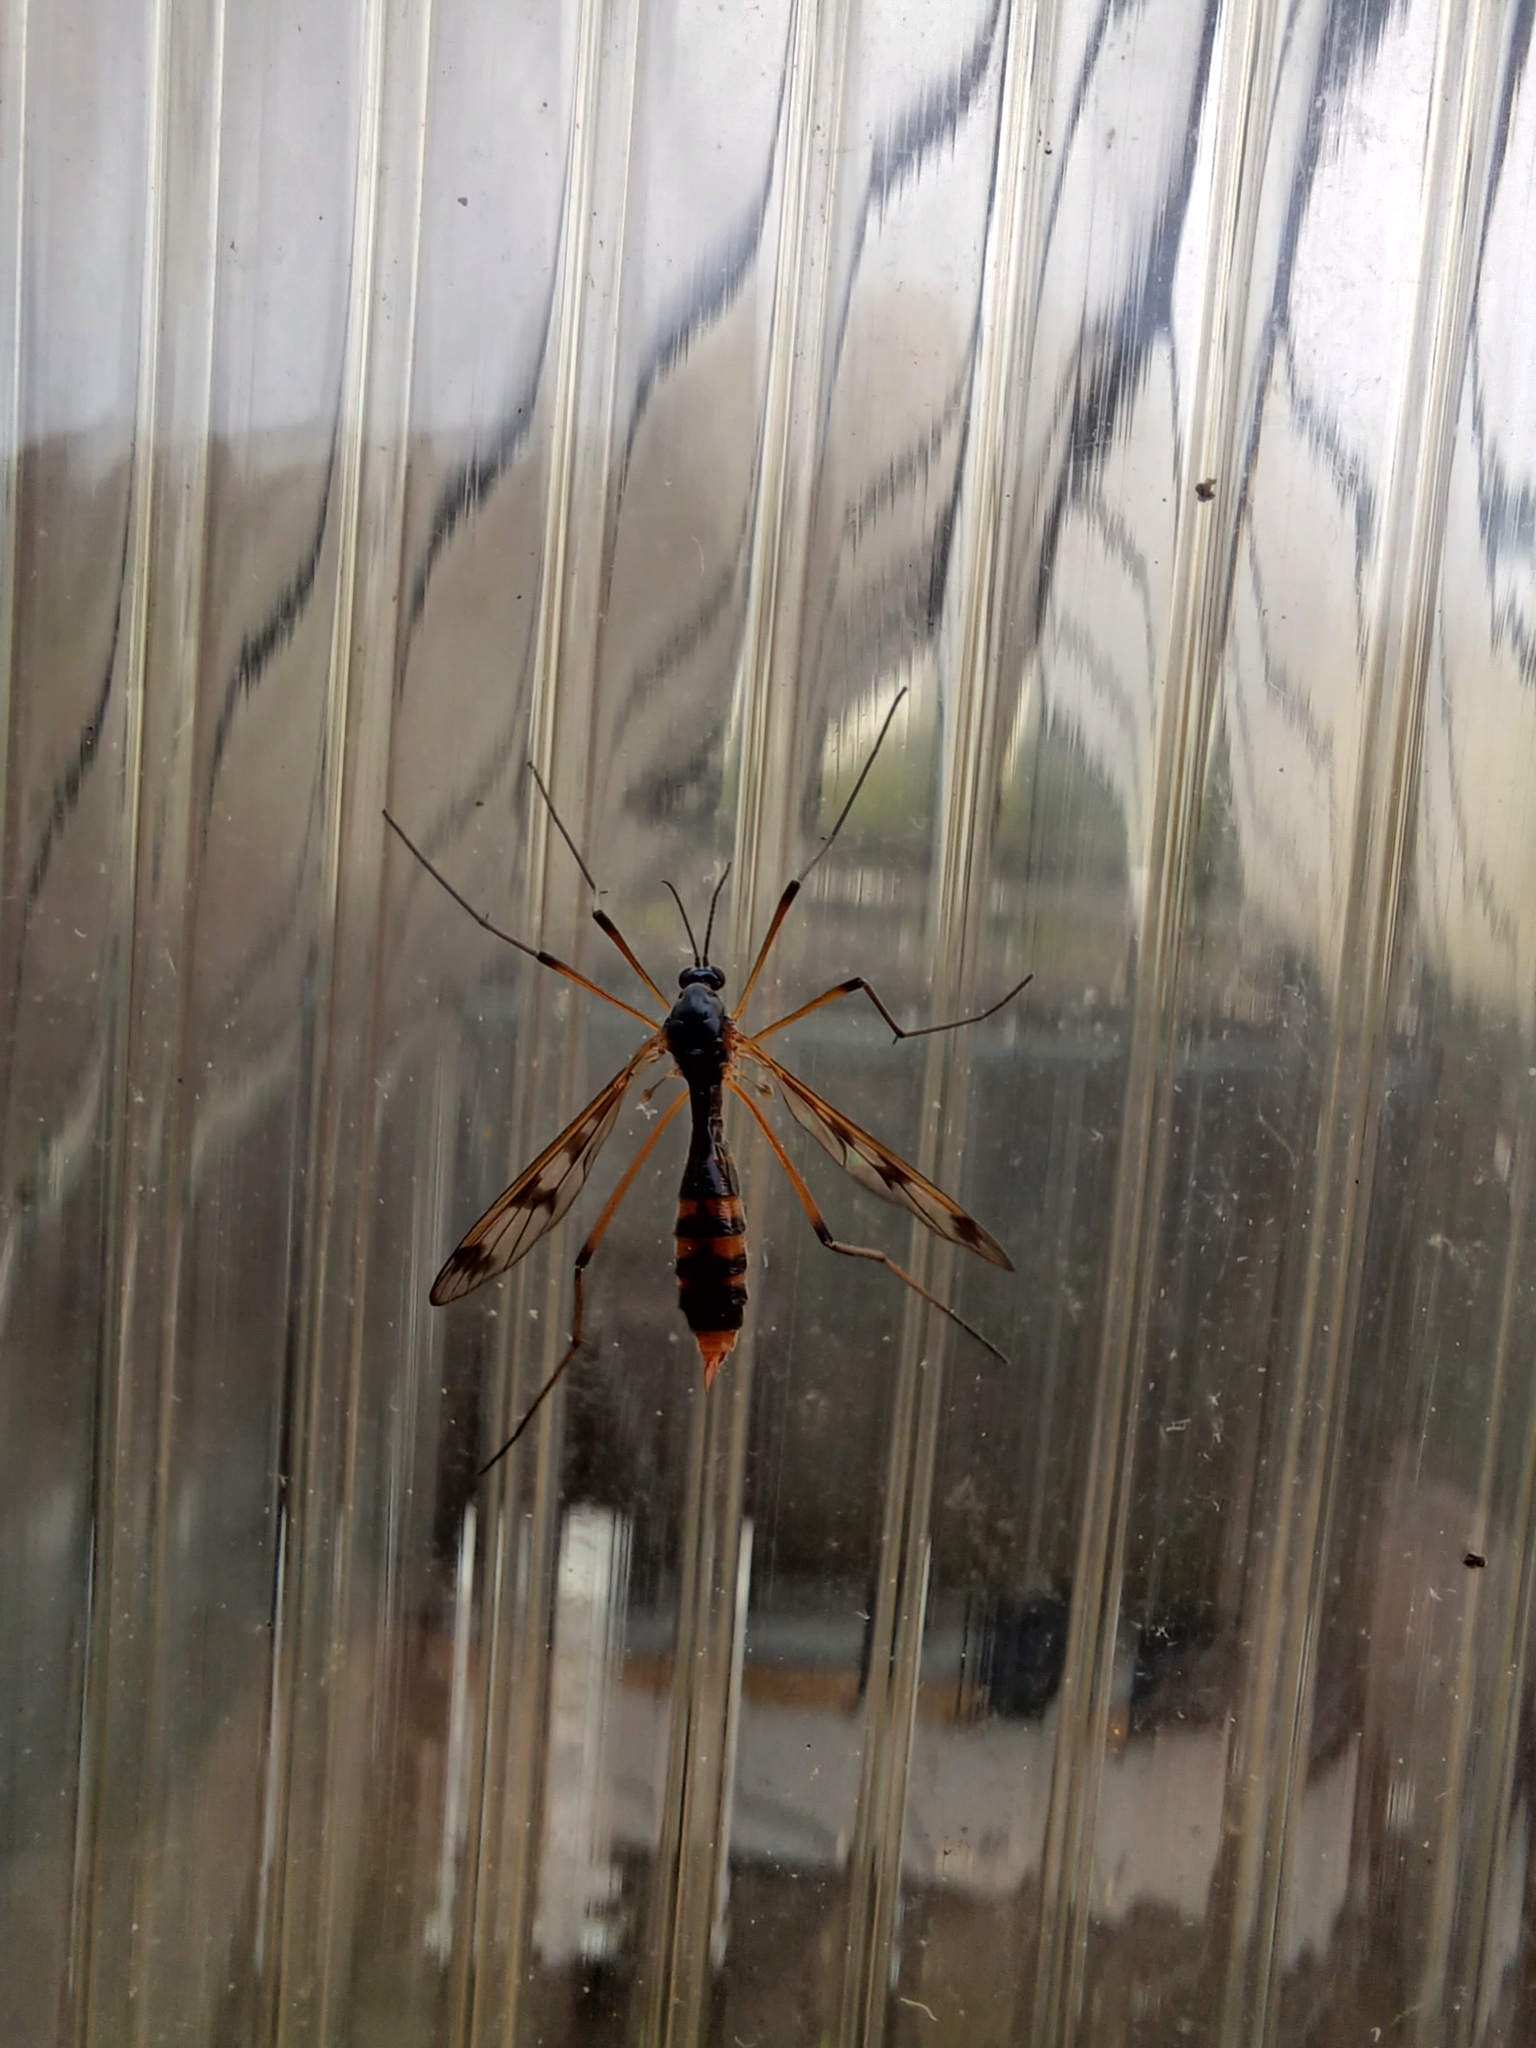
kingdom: Animalia
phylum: Arthropoda
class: Insecta
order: Diptera
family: Ptychopteridae
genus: Ptychoptera
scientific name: Ptychoptera quadrifasciata
